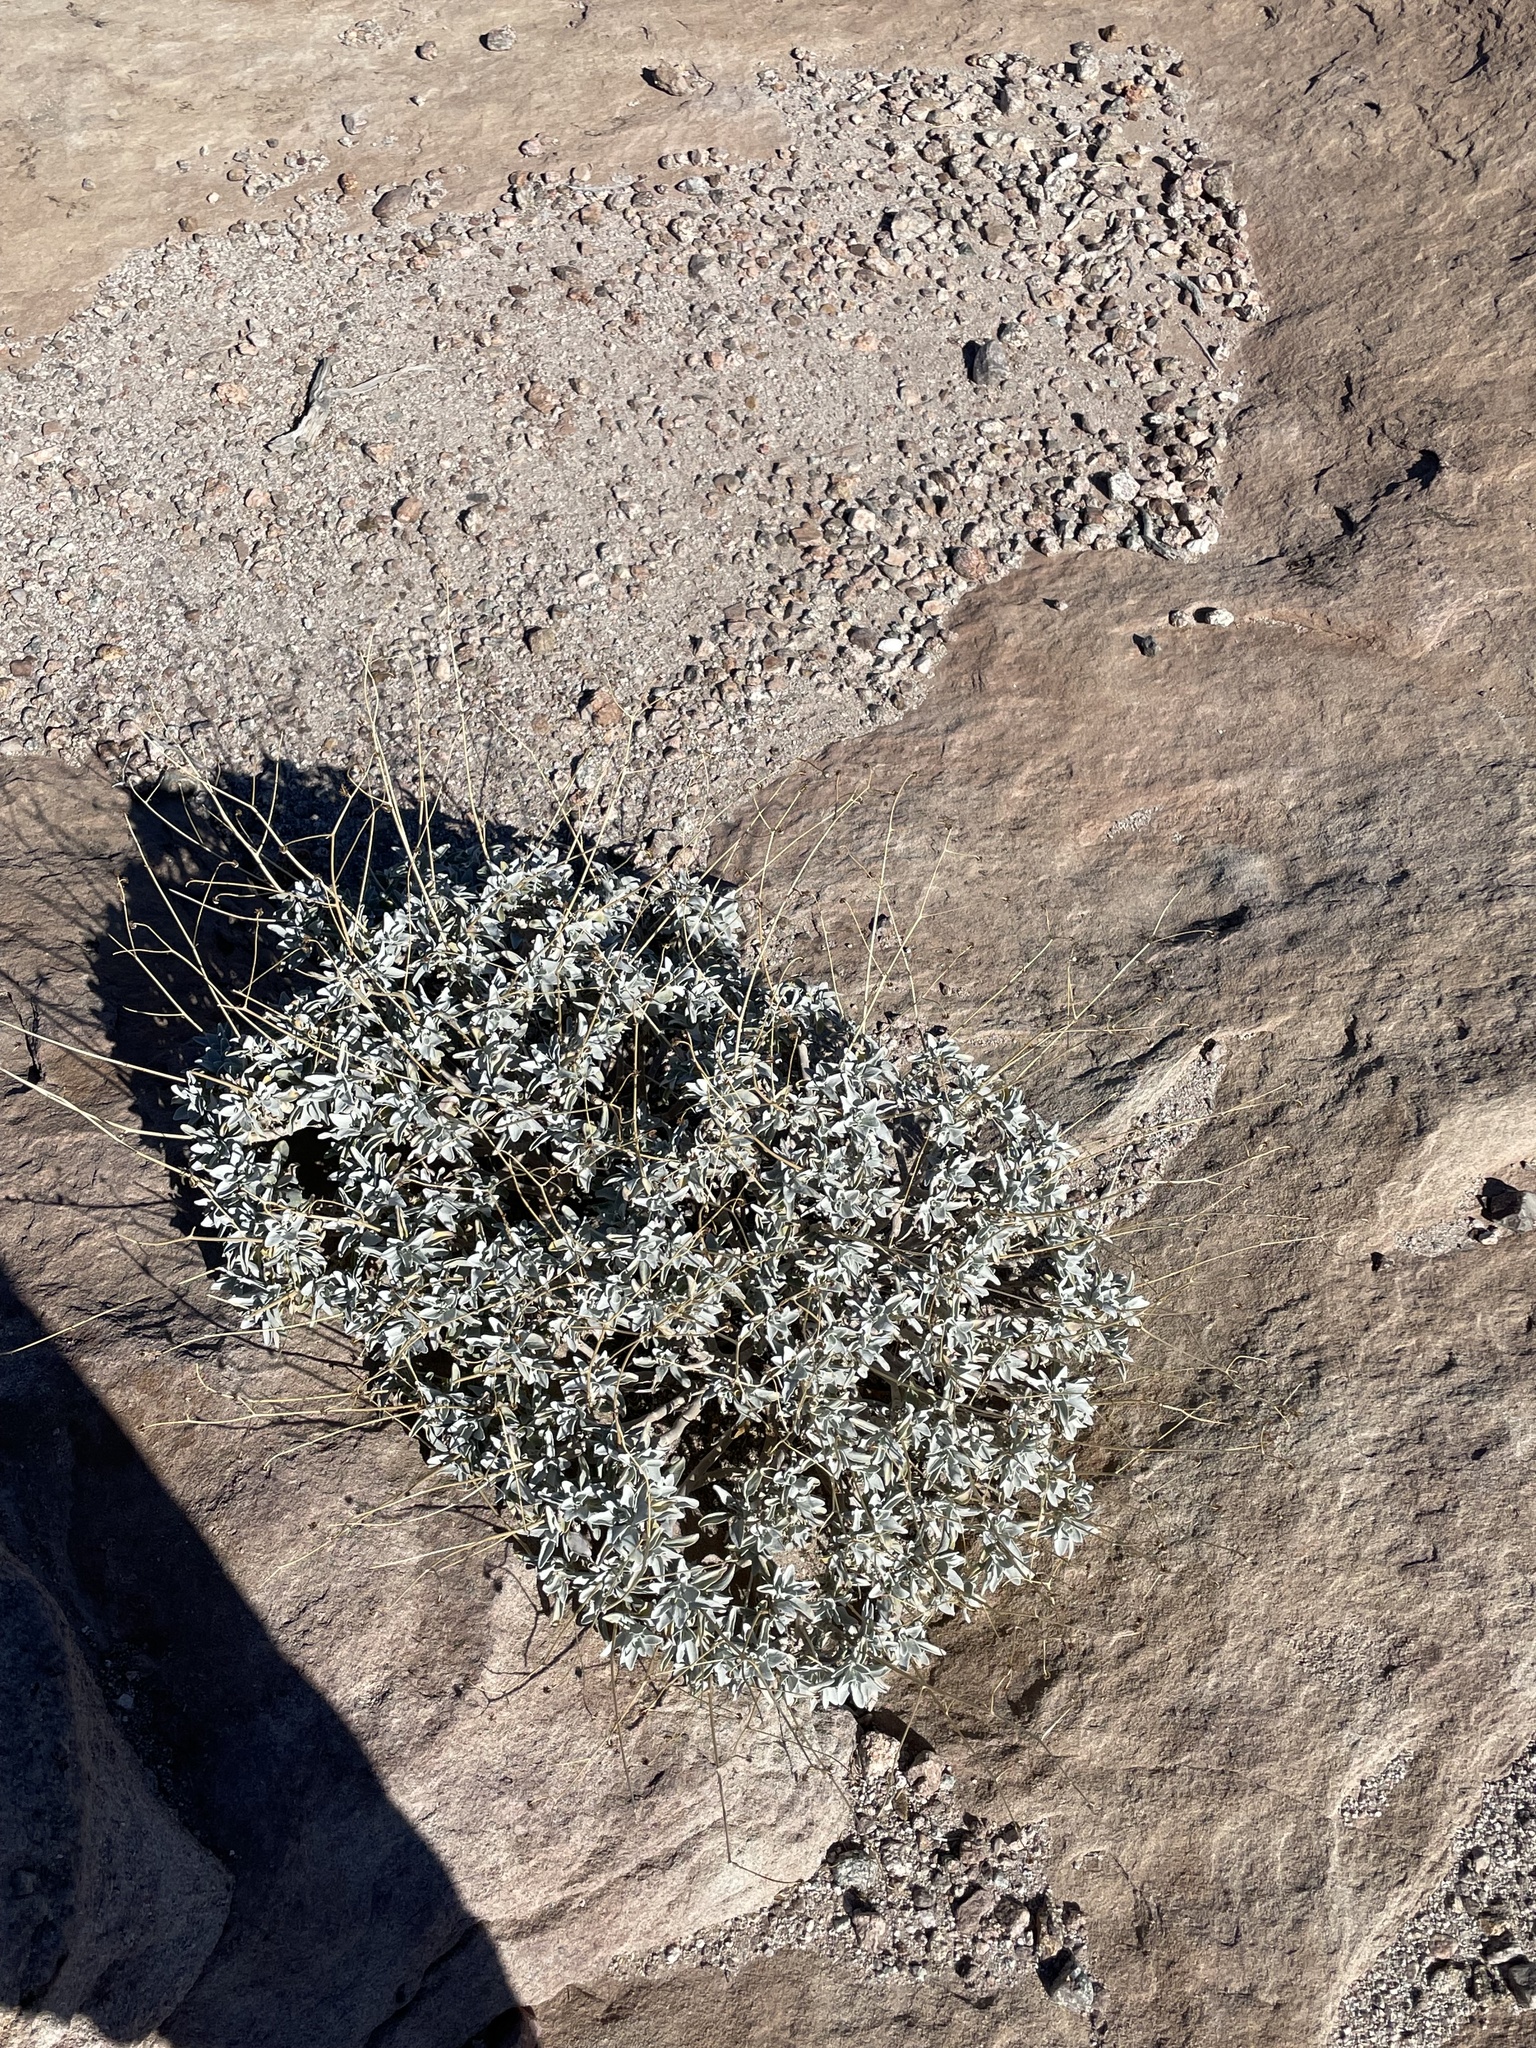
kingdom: Plantae
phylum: Tracheophyta
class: Magnoliopsida
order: Asterales
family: Asteraceae
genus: Encelia
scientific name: Encelia farinosa
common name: Brittlebush
